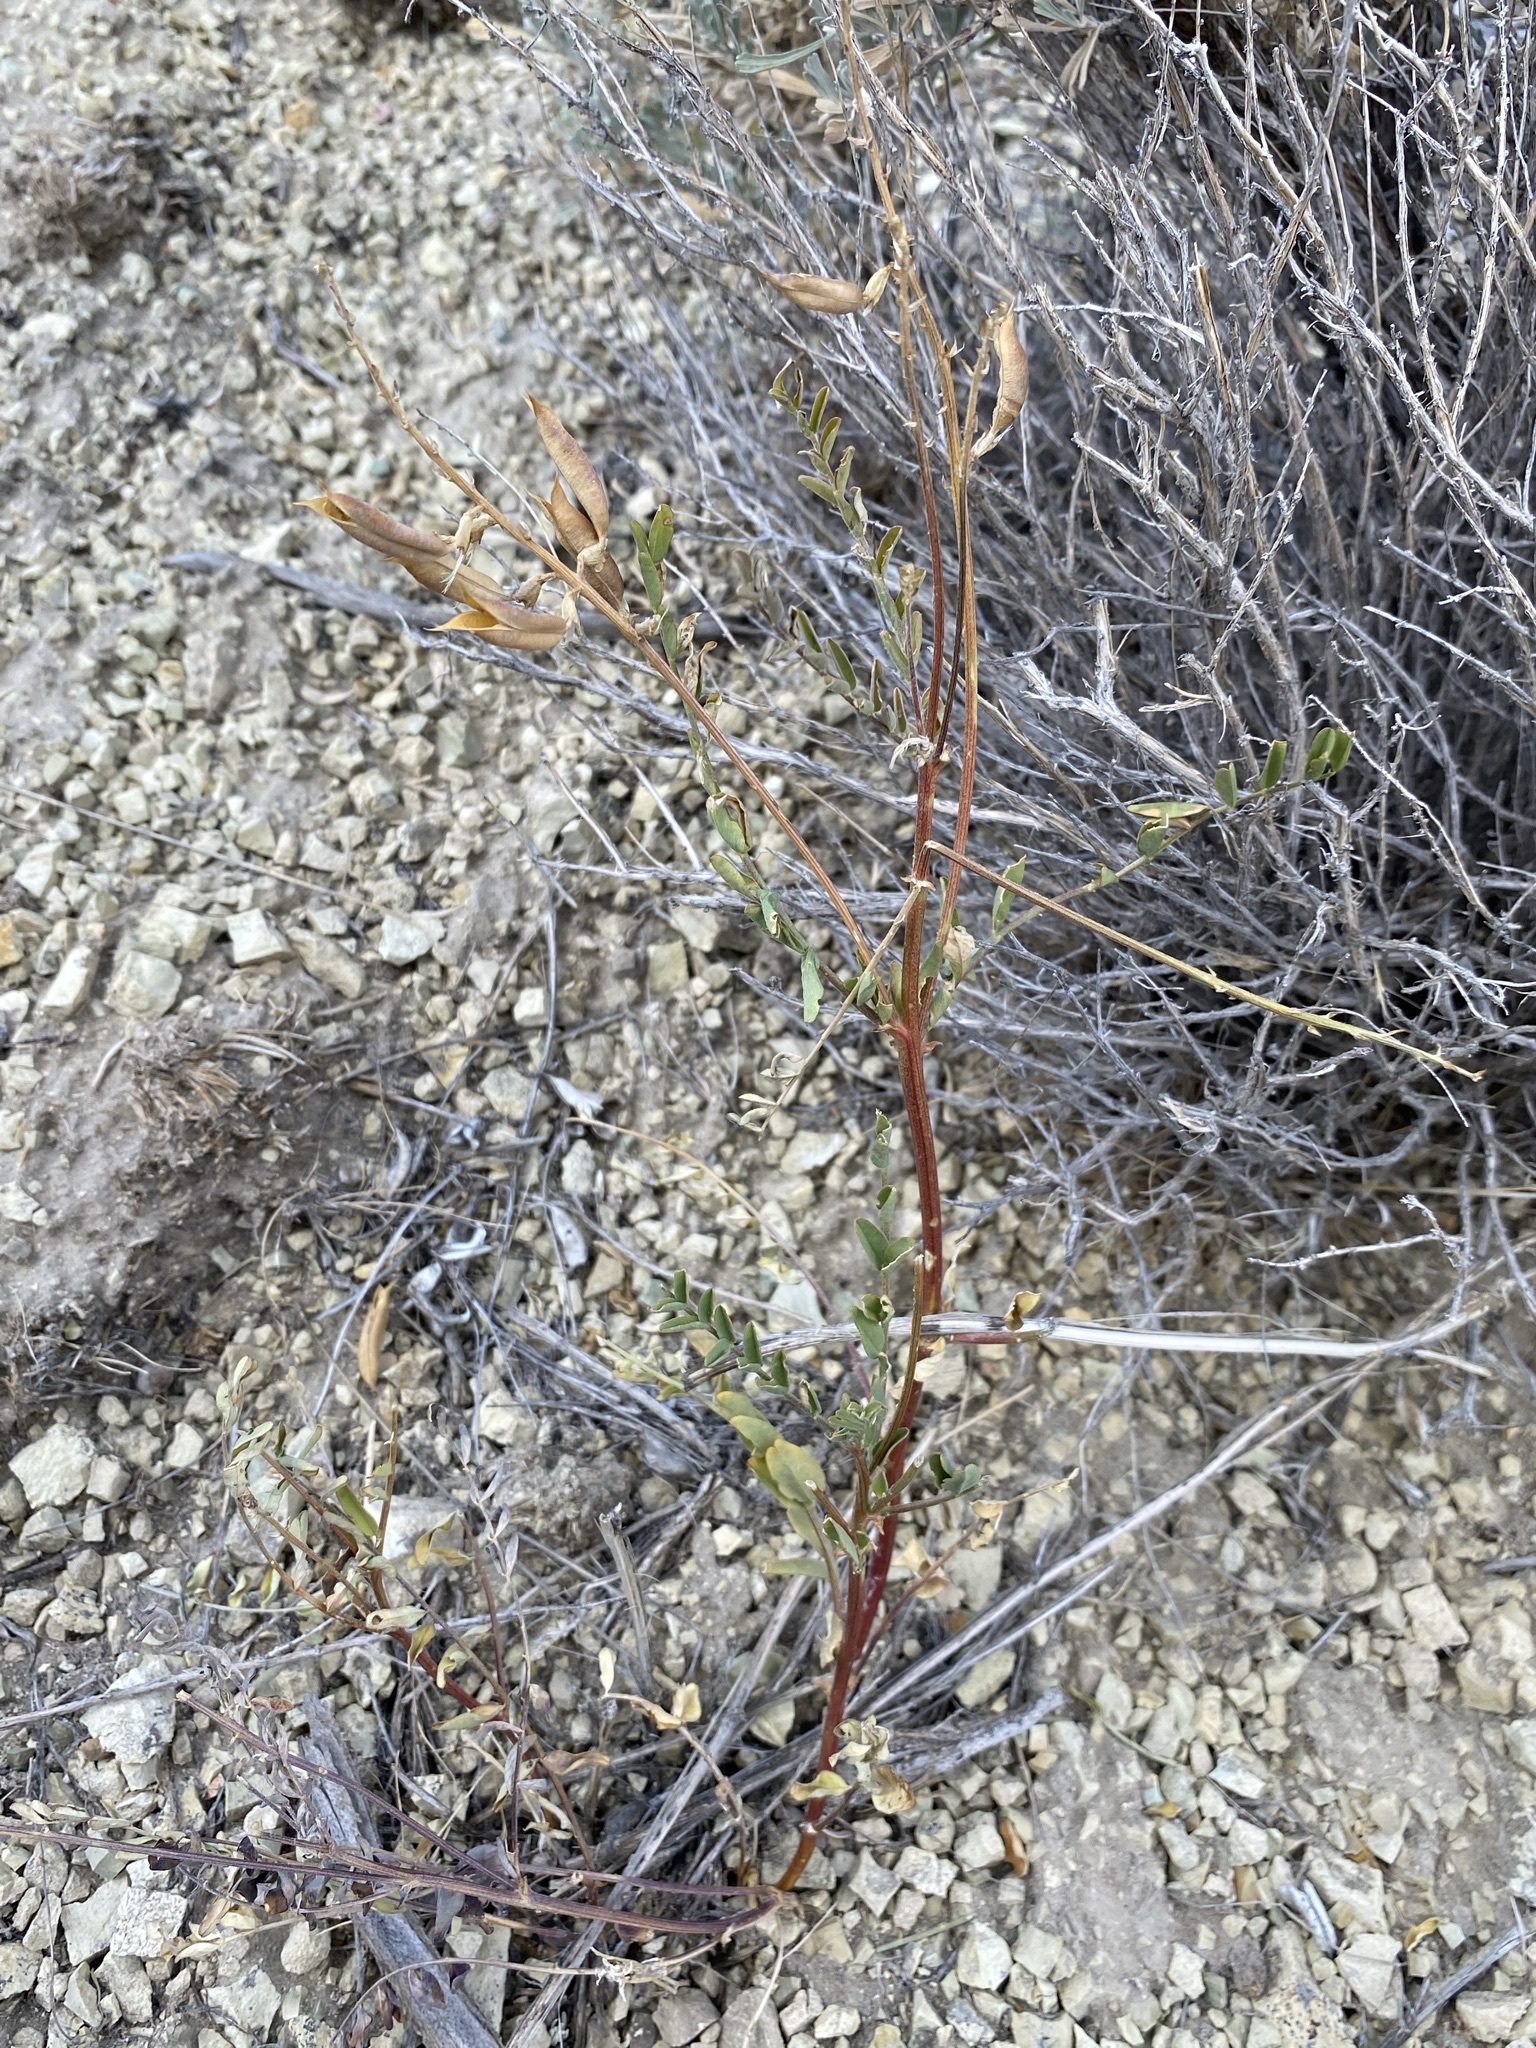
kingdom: Plantae
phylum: Tracheophyta
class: Magnoliopsida
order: Fabales
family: Fabaceae
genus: Astragalus
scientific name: Astragalus eremiticus
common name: Hermit milk-vetch
